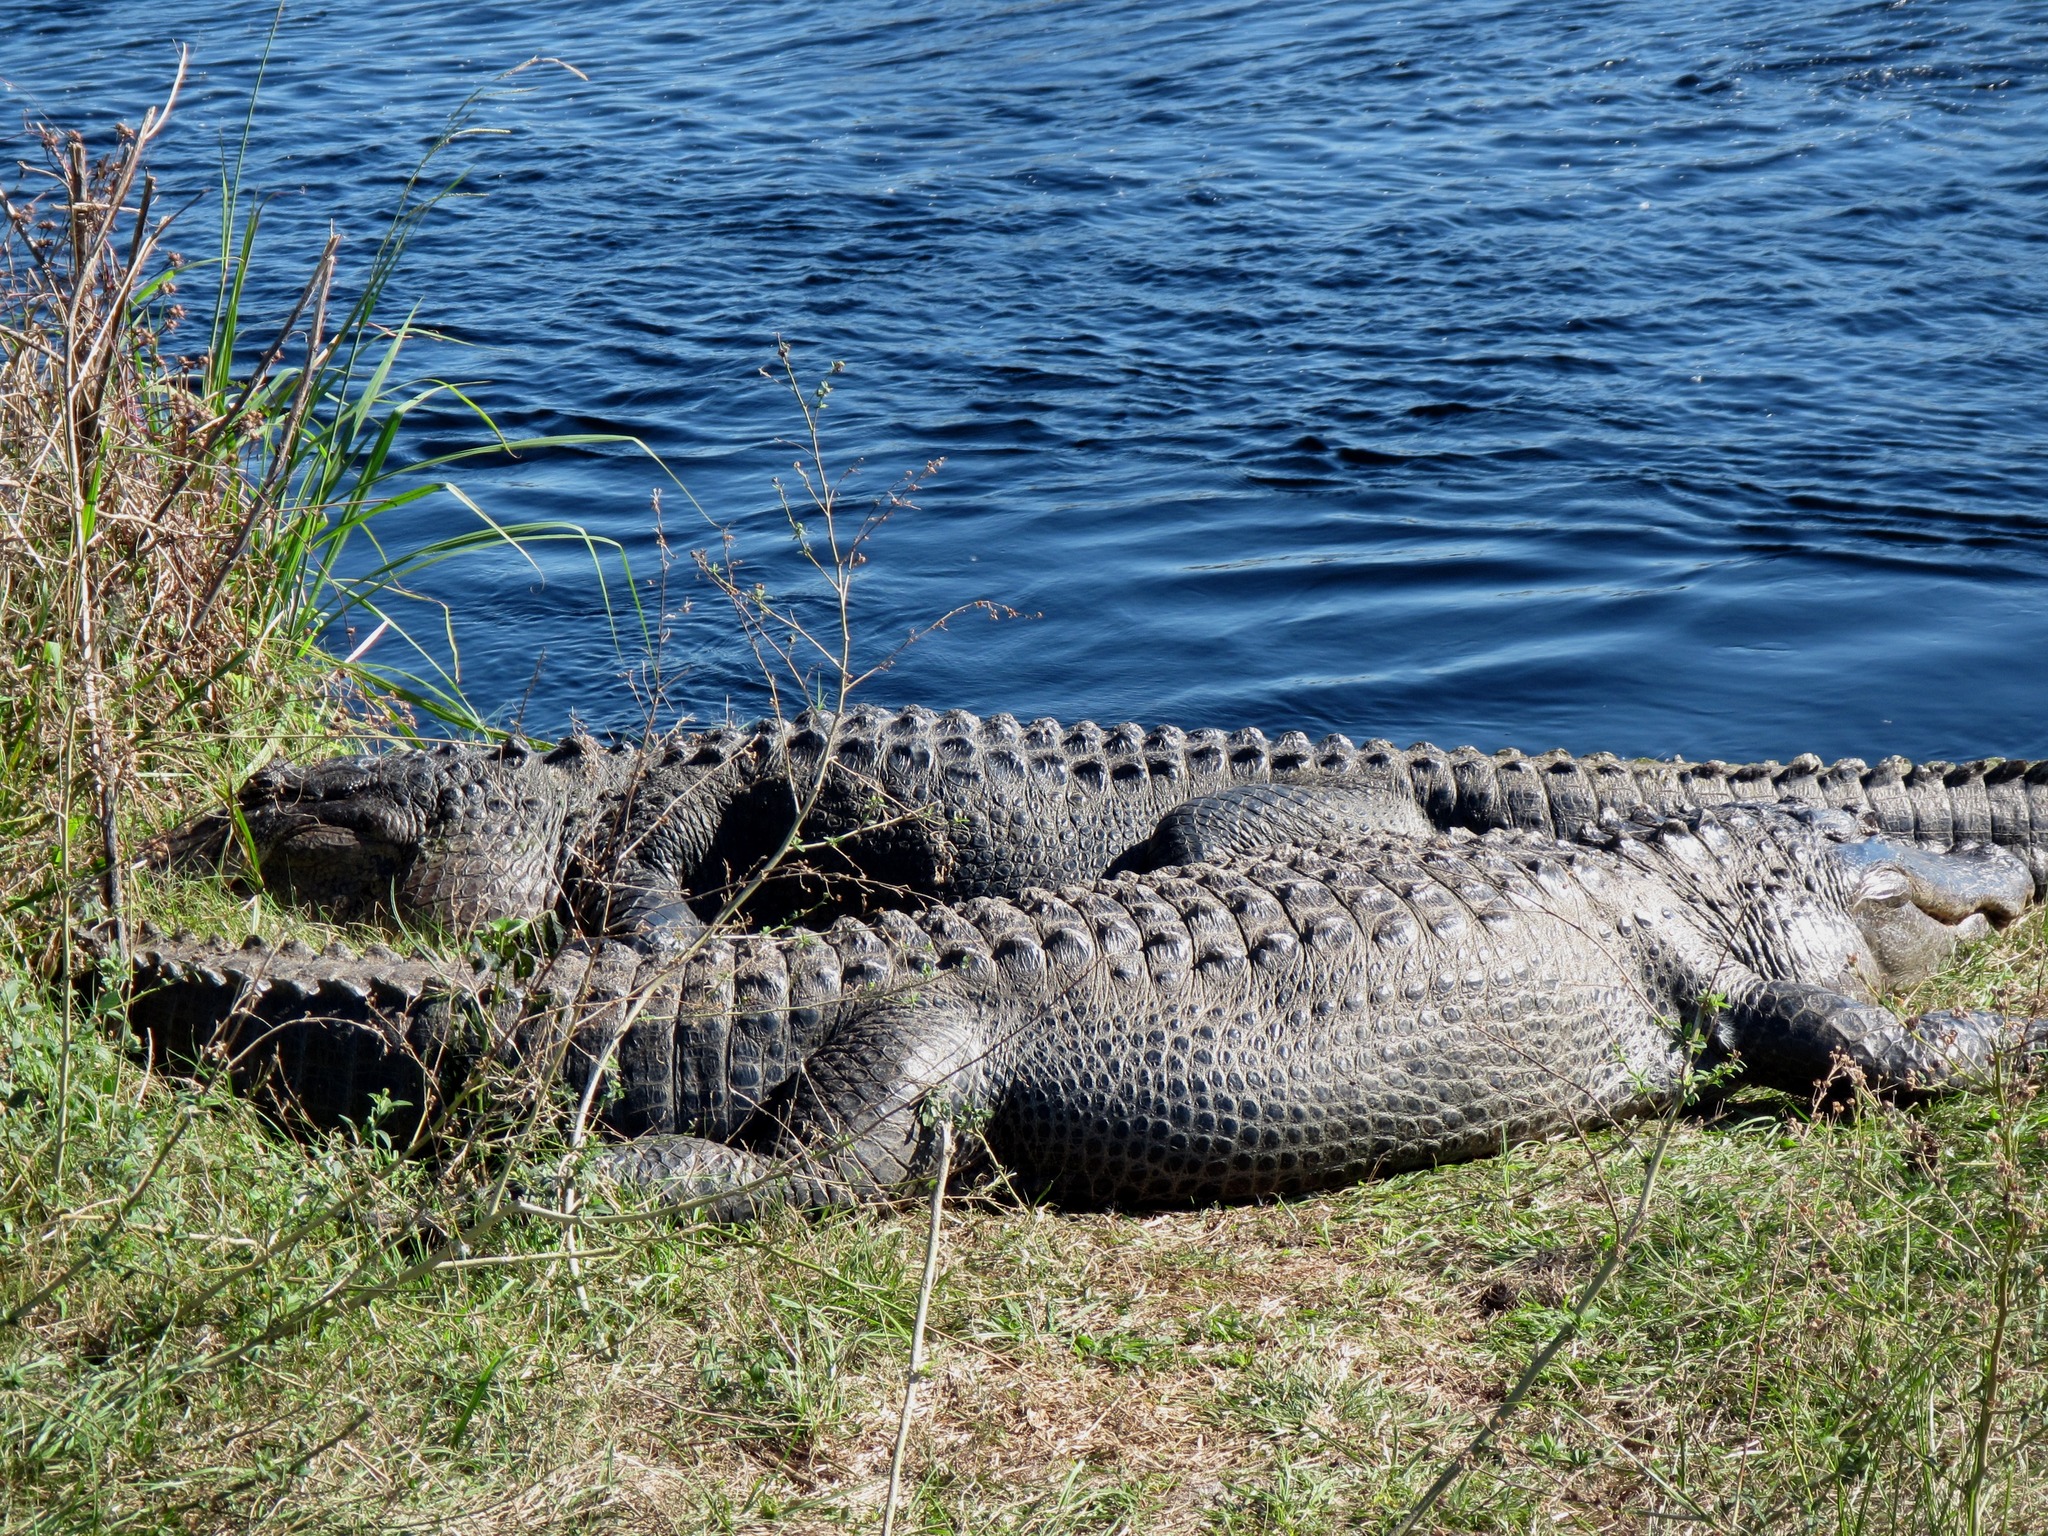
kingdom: Animalia
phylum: Chordata
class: Crocodylia
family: Alligatoridae
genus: Alligator
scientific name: Alligator mississippiensis
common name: American alligator
